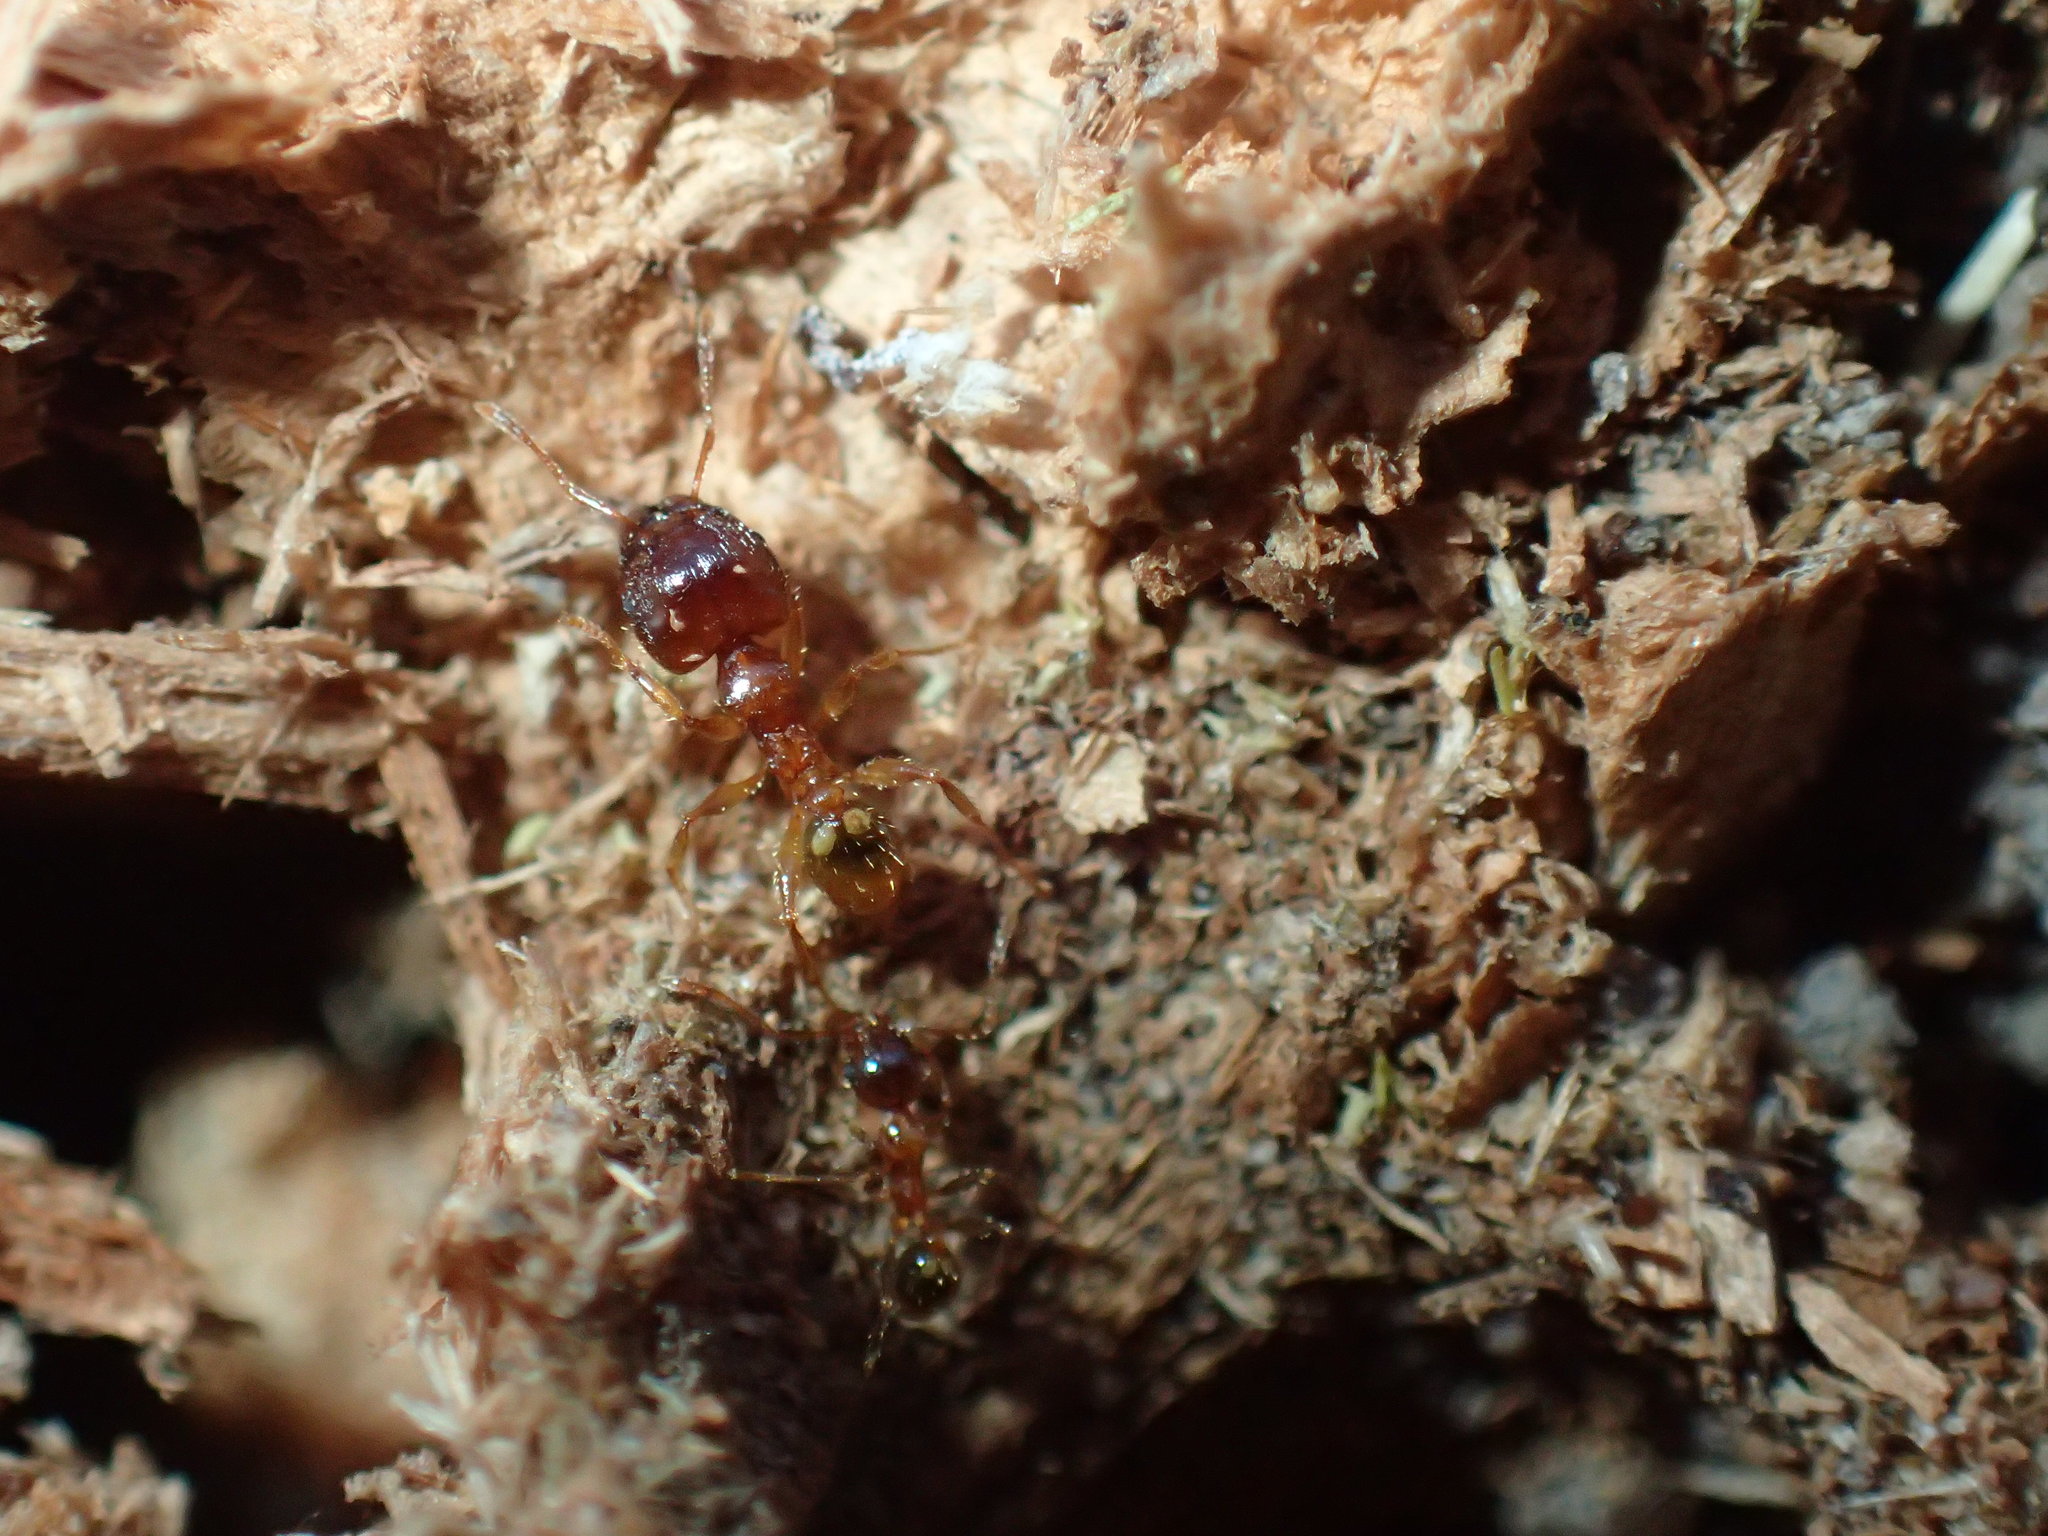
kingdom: Animalia
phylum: Arthropoda
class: Insecta
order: Hymenoptera
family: Formicidae
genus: Pheidole
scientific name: Pheidole megacephala
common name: Bigheaded ant
